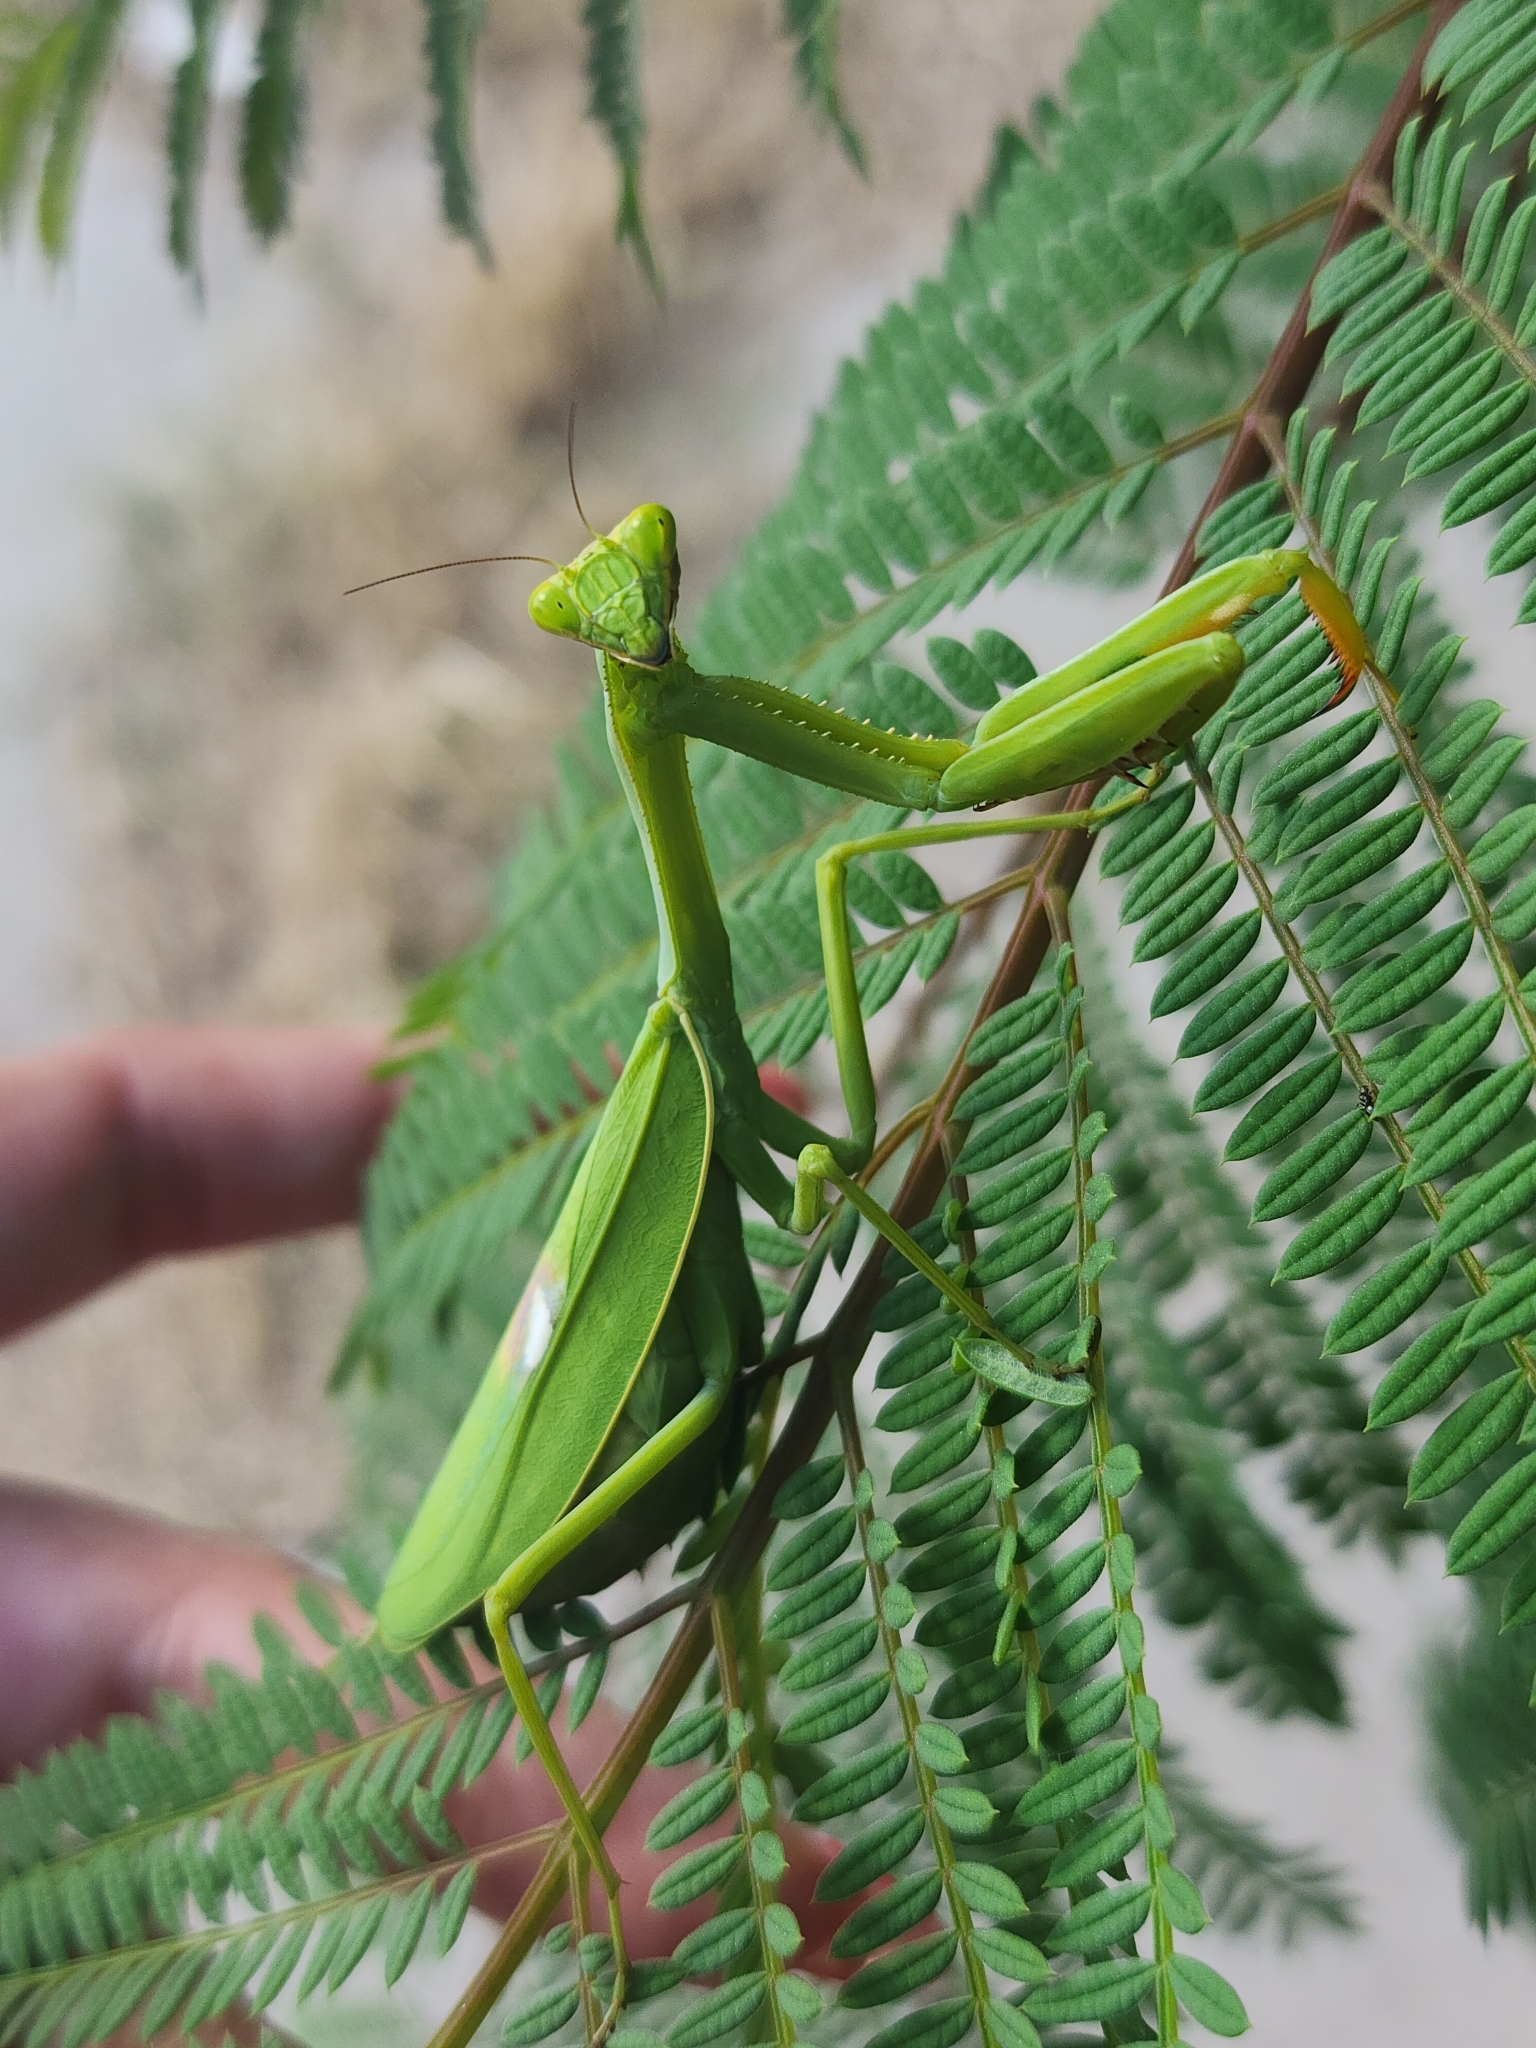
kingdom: Animalia
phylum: Arthropoda
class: Insecta
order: Mantodea
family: Mantidae
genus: Stagmatoptera
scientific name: Stagmatoptera hyaloptera
